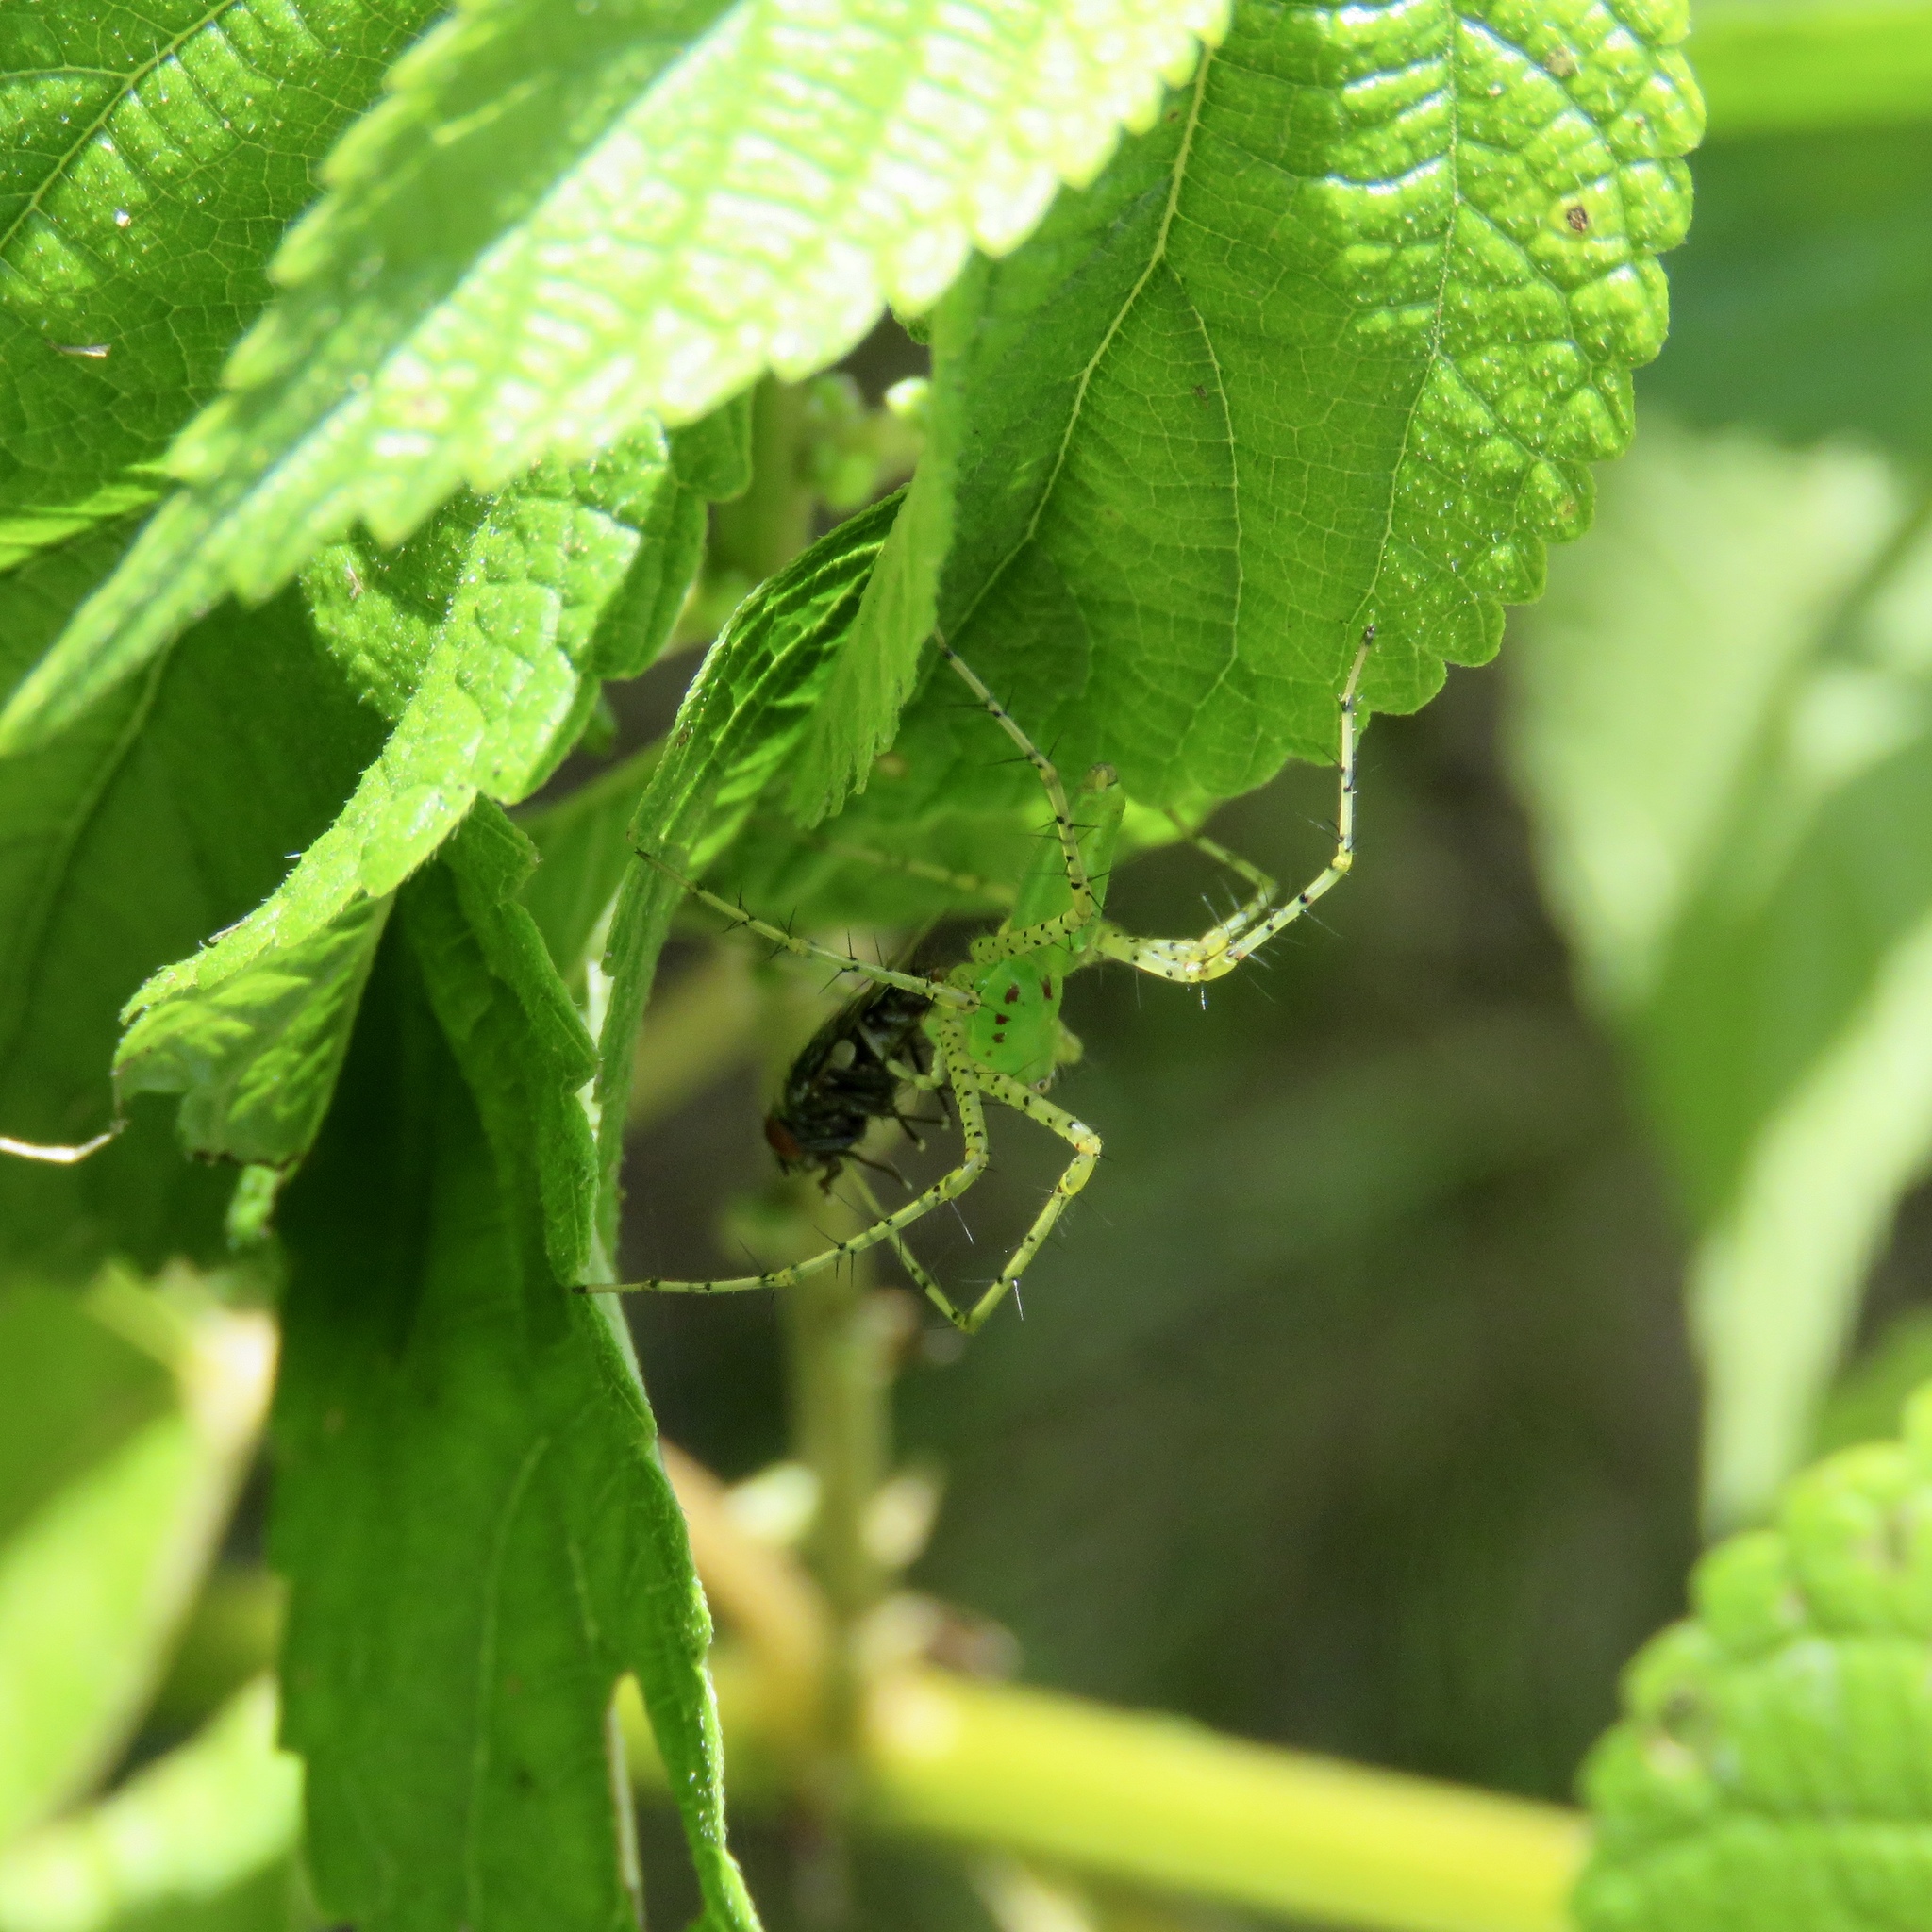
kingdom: Animalia
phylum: Arthropoda
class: Arachnida
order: Araneae
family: Oxyopidae
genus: Peucetia
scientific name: Peucetia viridans
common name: Lynx spiders
